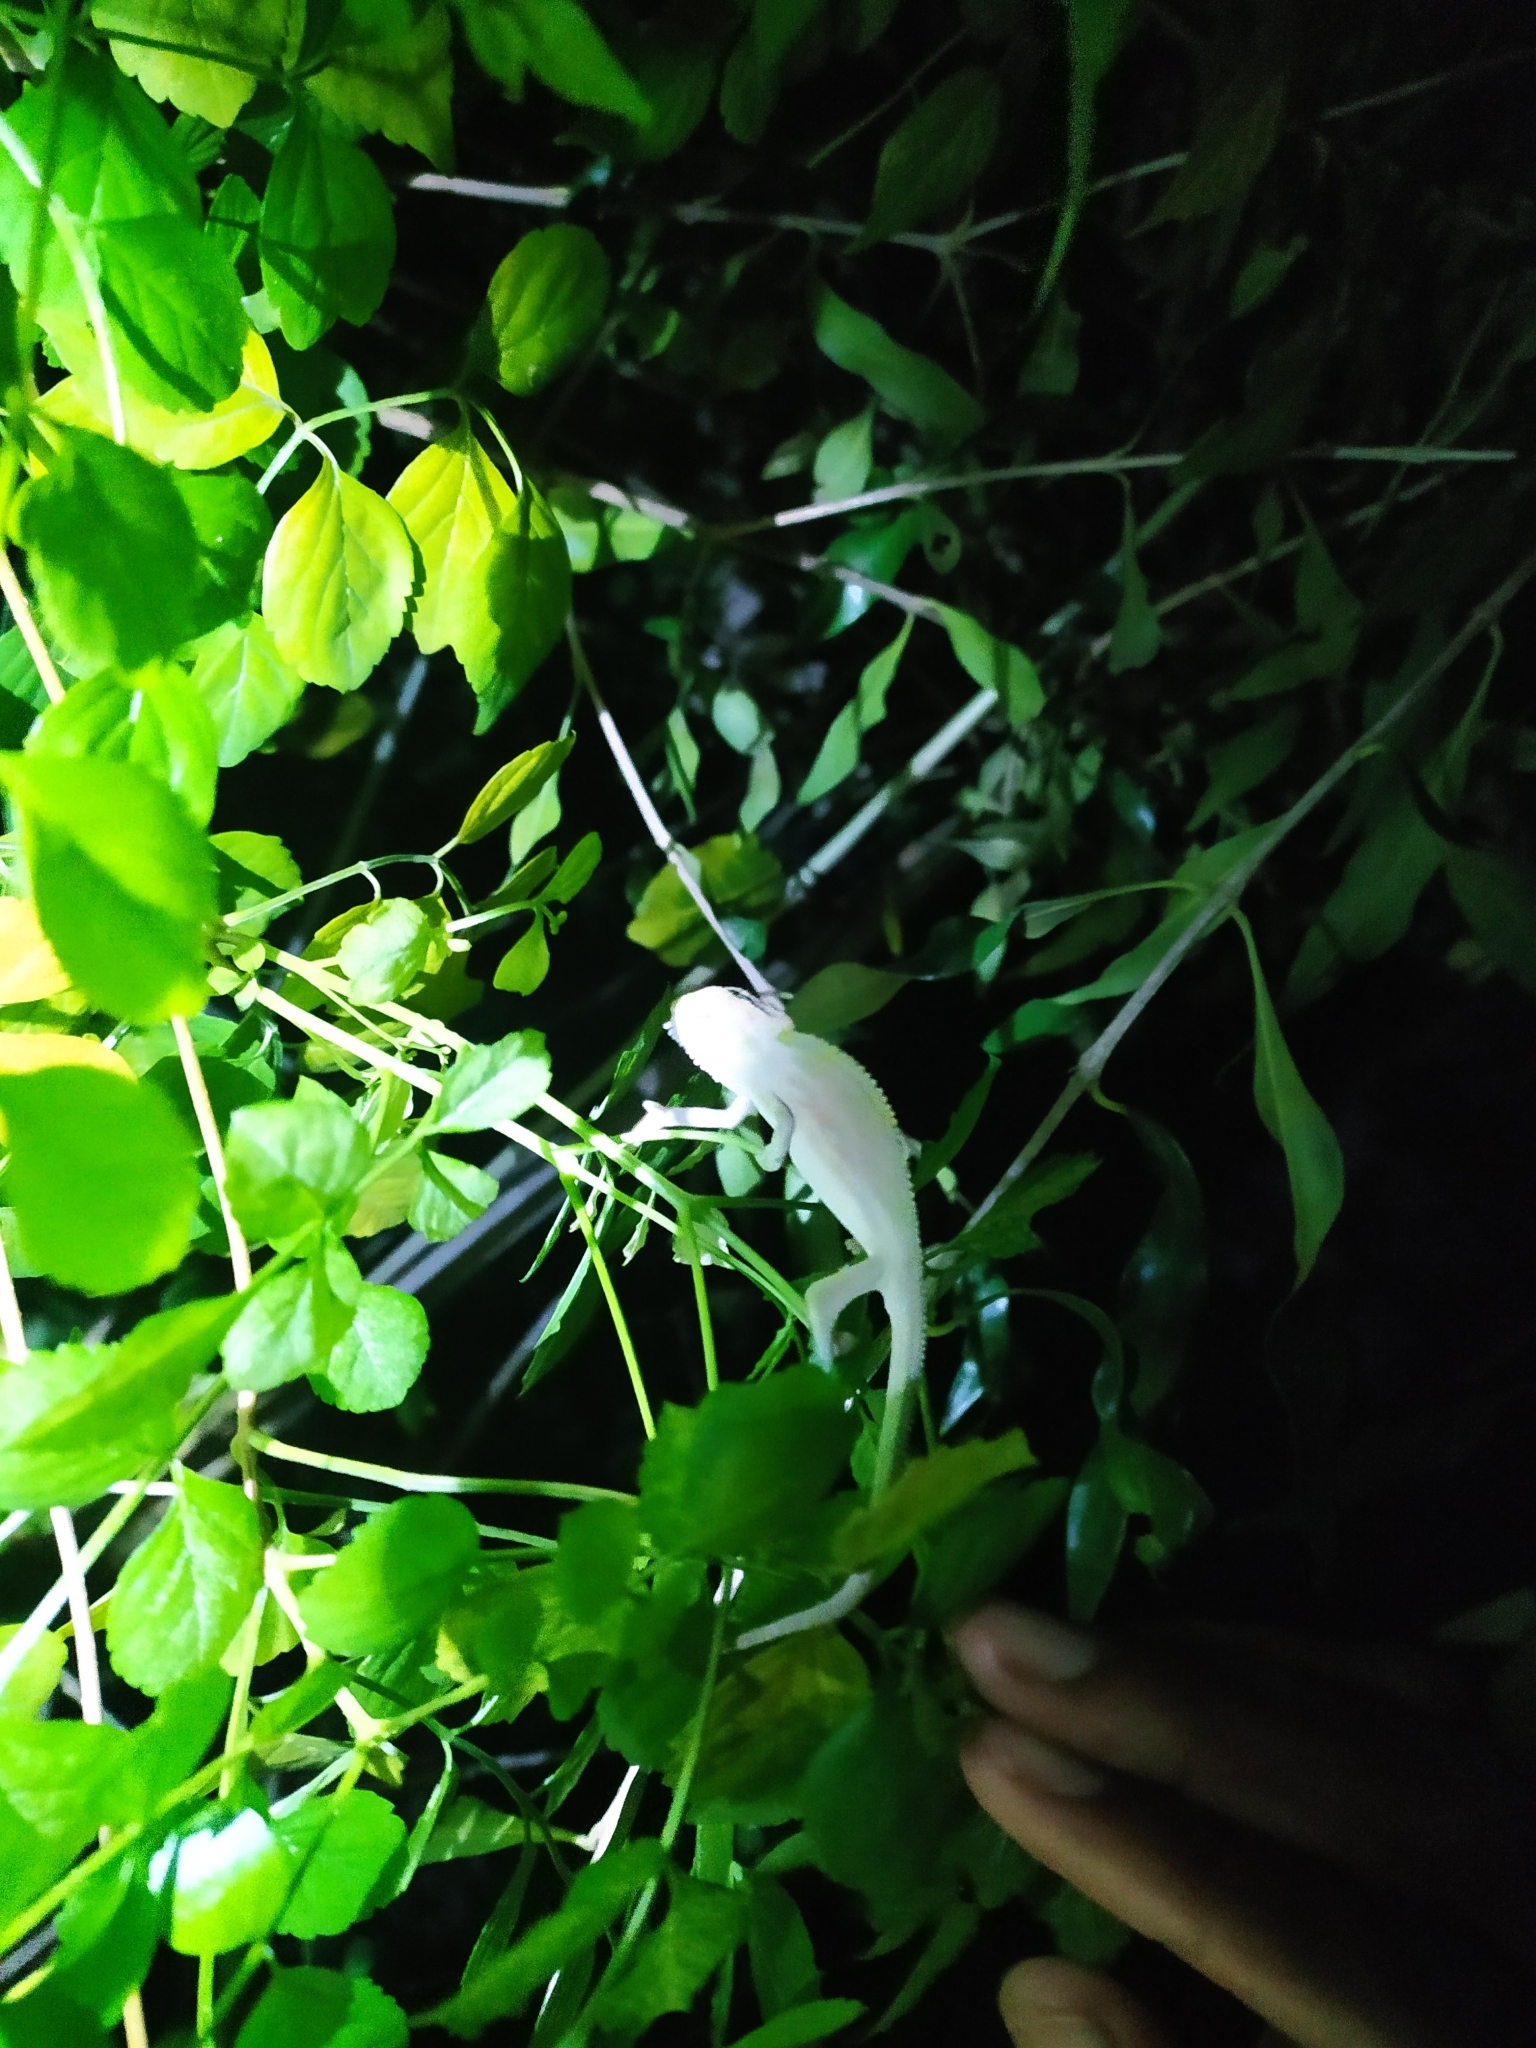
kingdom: Animalia
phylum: Chordata
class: Squamata
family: Chamaeleonidae
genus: Bradypodion
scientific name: Bradypodion pumilum
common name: Cape dwarf chameleon
